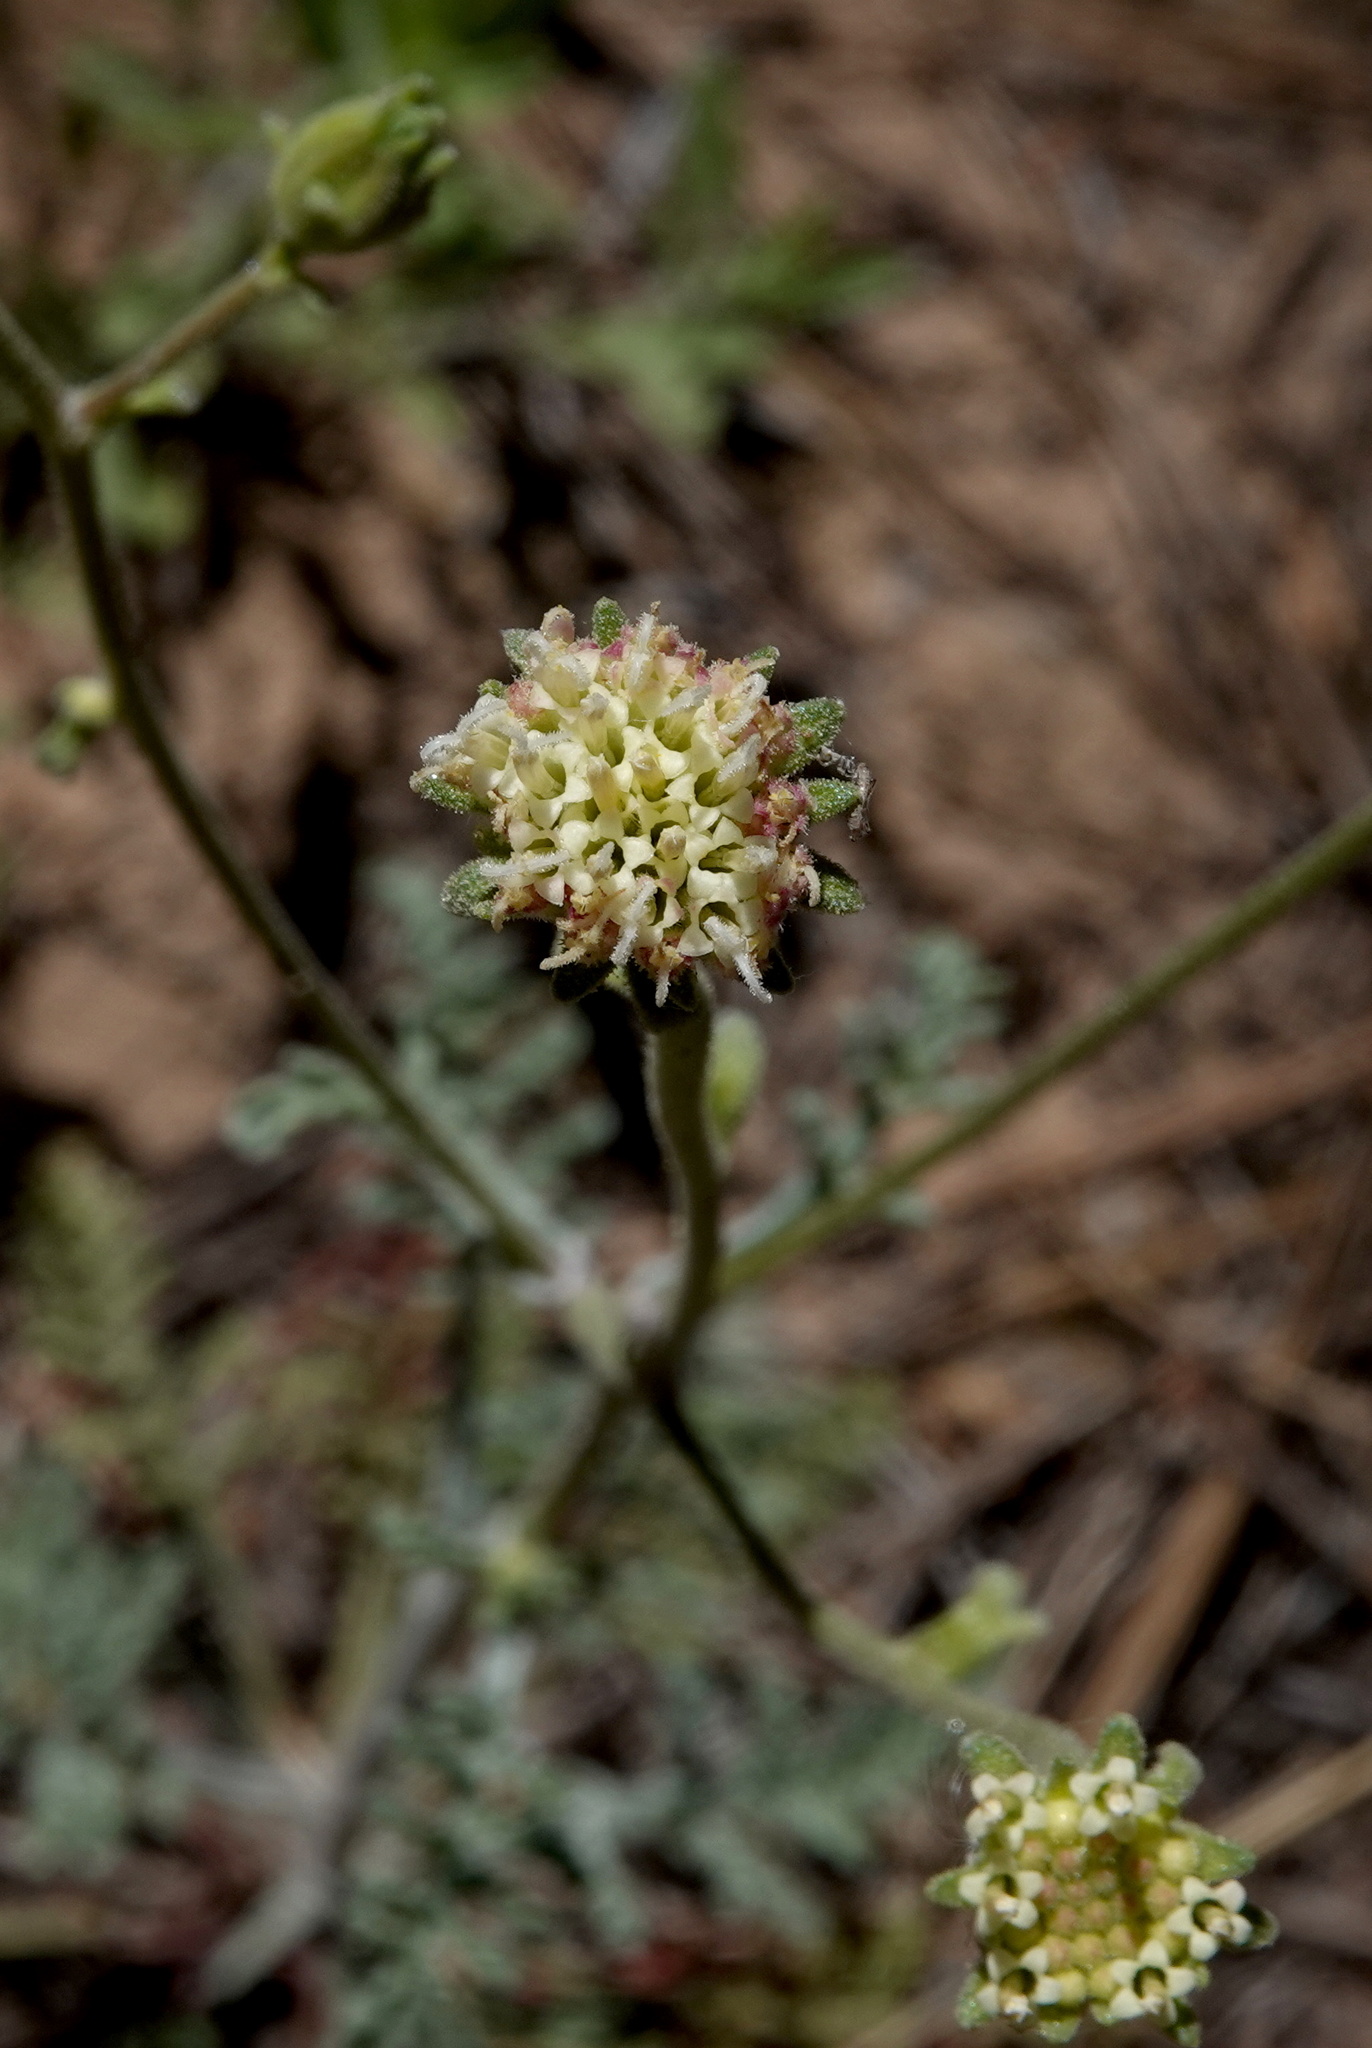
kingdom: Plantae
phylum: Tracheophyta
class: Magnoliopsida
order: Asterales
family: Asteraceae
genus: Chaenactis
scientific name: Chaenactis douglasii
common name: Hoary pincushion
